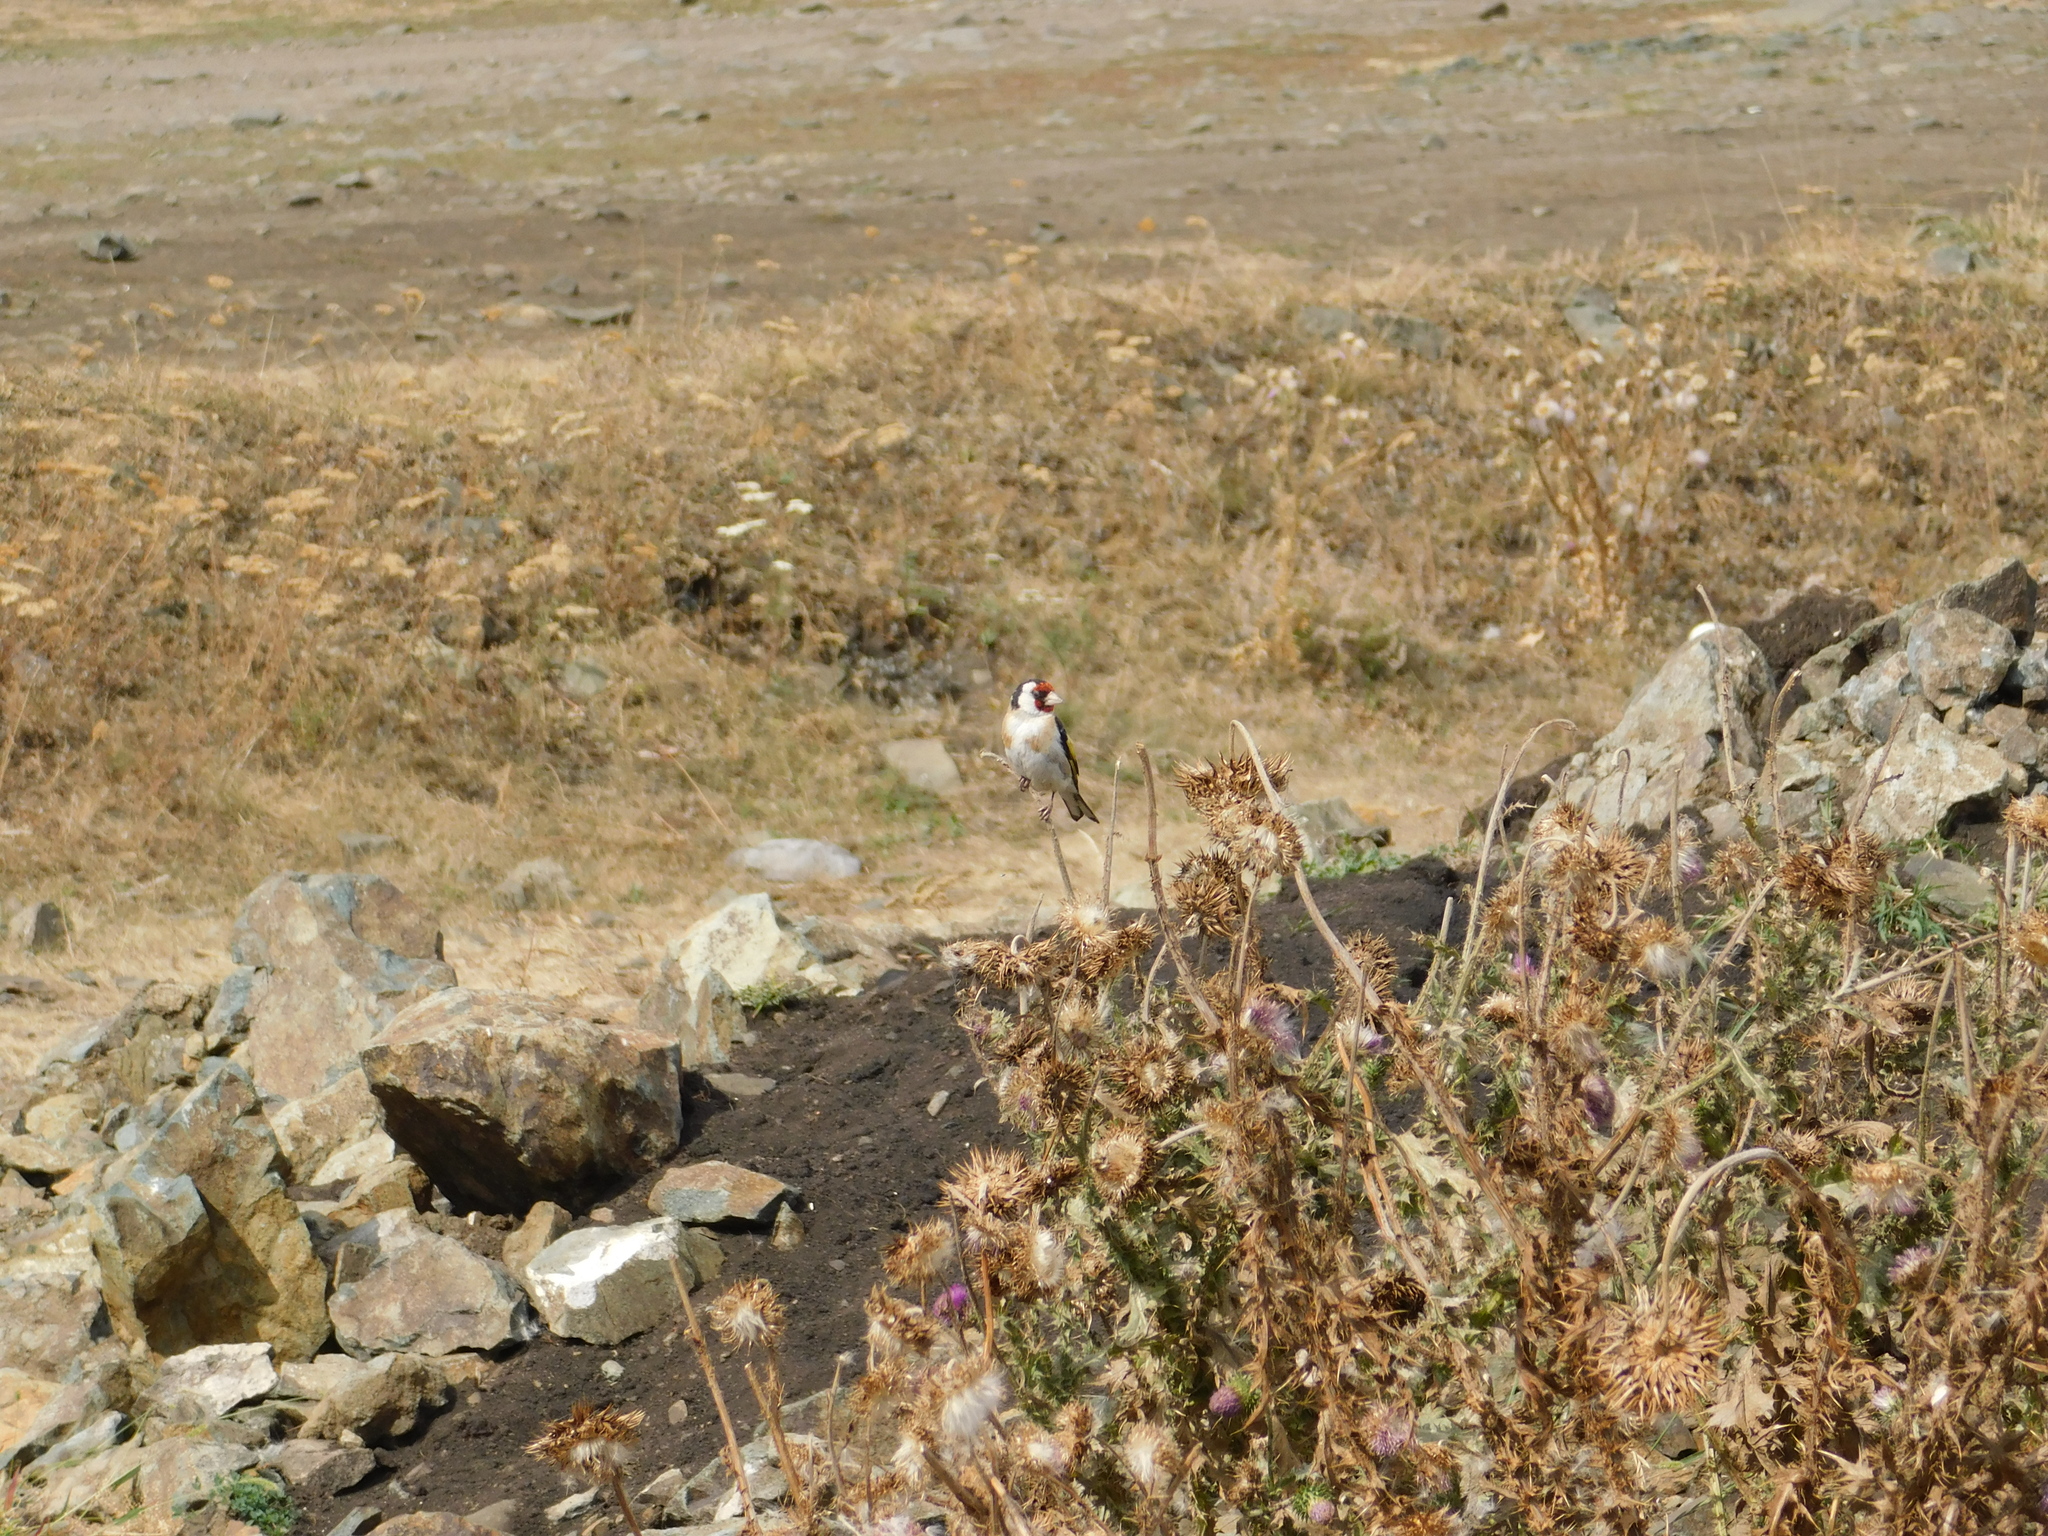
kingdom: Animalia
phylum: Chordata
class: Aves
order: Passeriformes
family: Fringillidae
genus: Carduelis
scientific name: Carduelis carduelis
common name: European goldfinch
